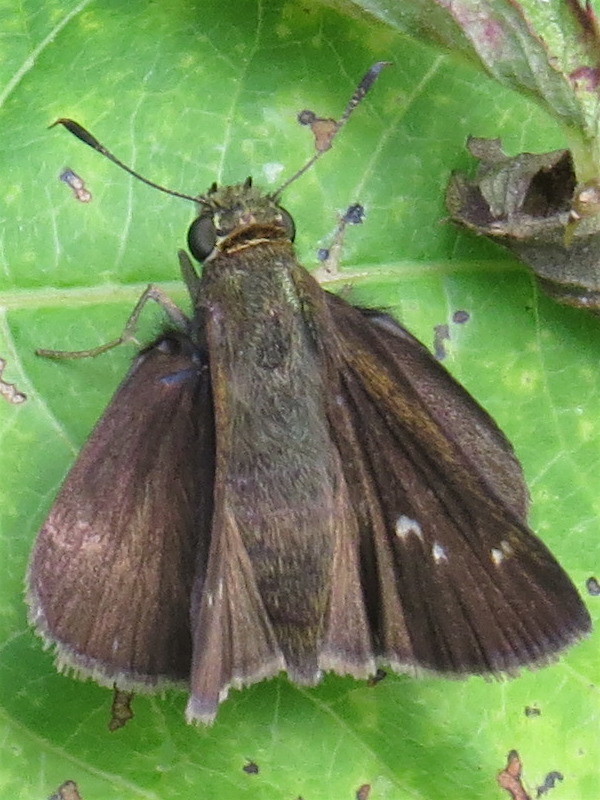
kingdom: Animalia
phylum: Arthropoda
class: Insecta
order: Lepidoptera
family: Hesperiidae
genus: Euphyes
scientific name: Euphyes vestris
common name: Dun skipper
